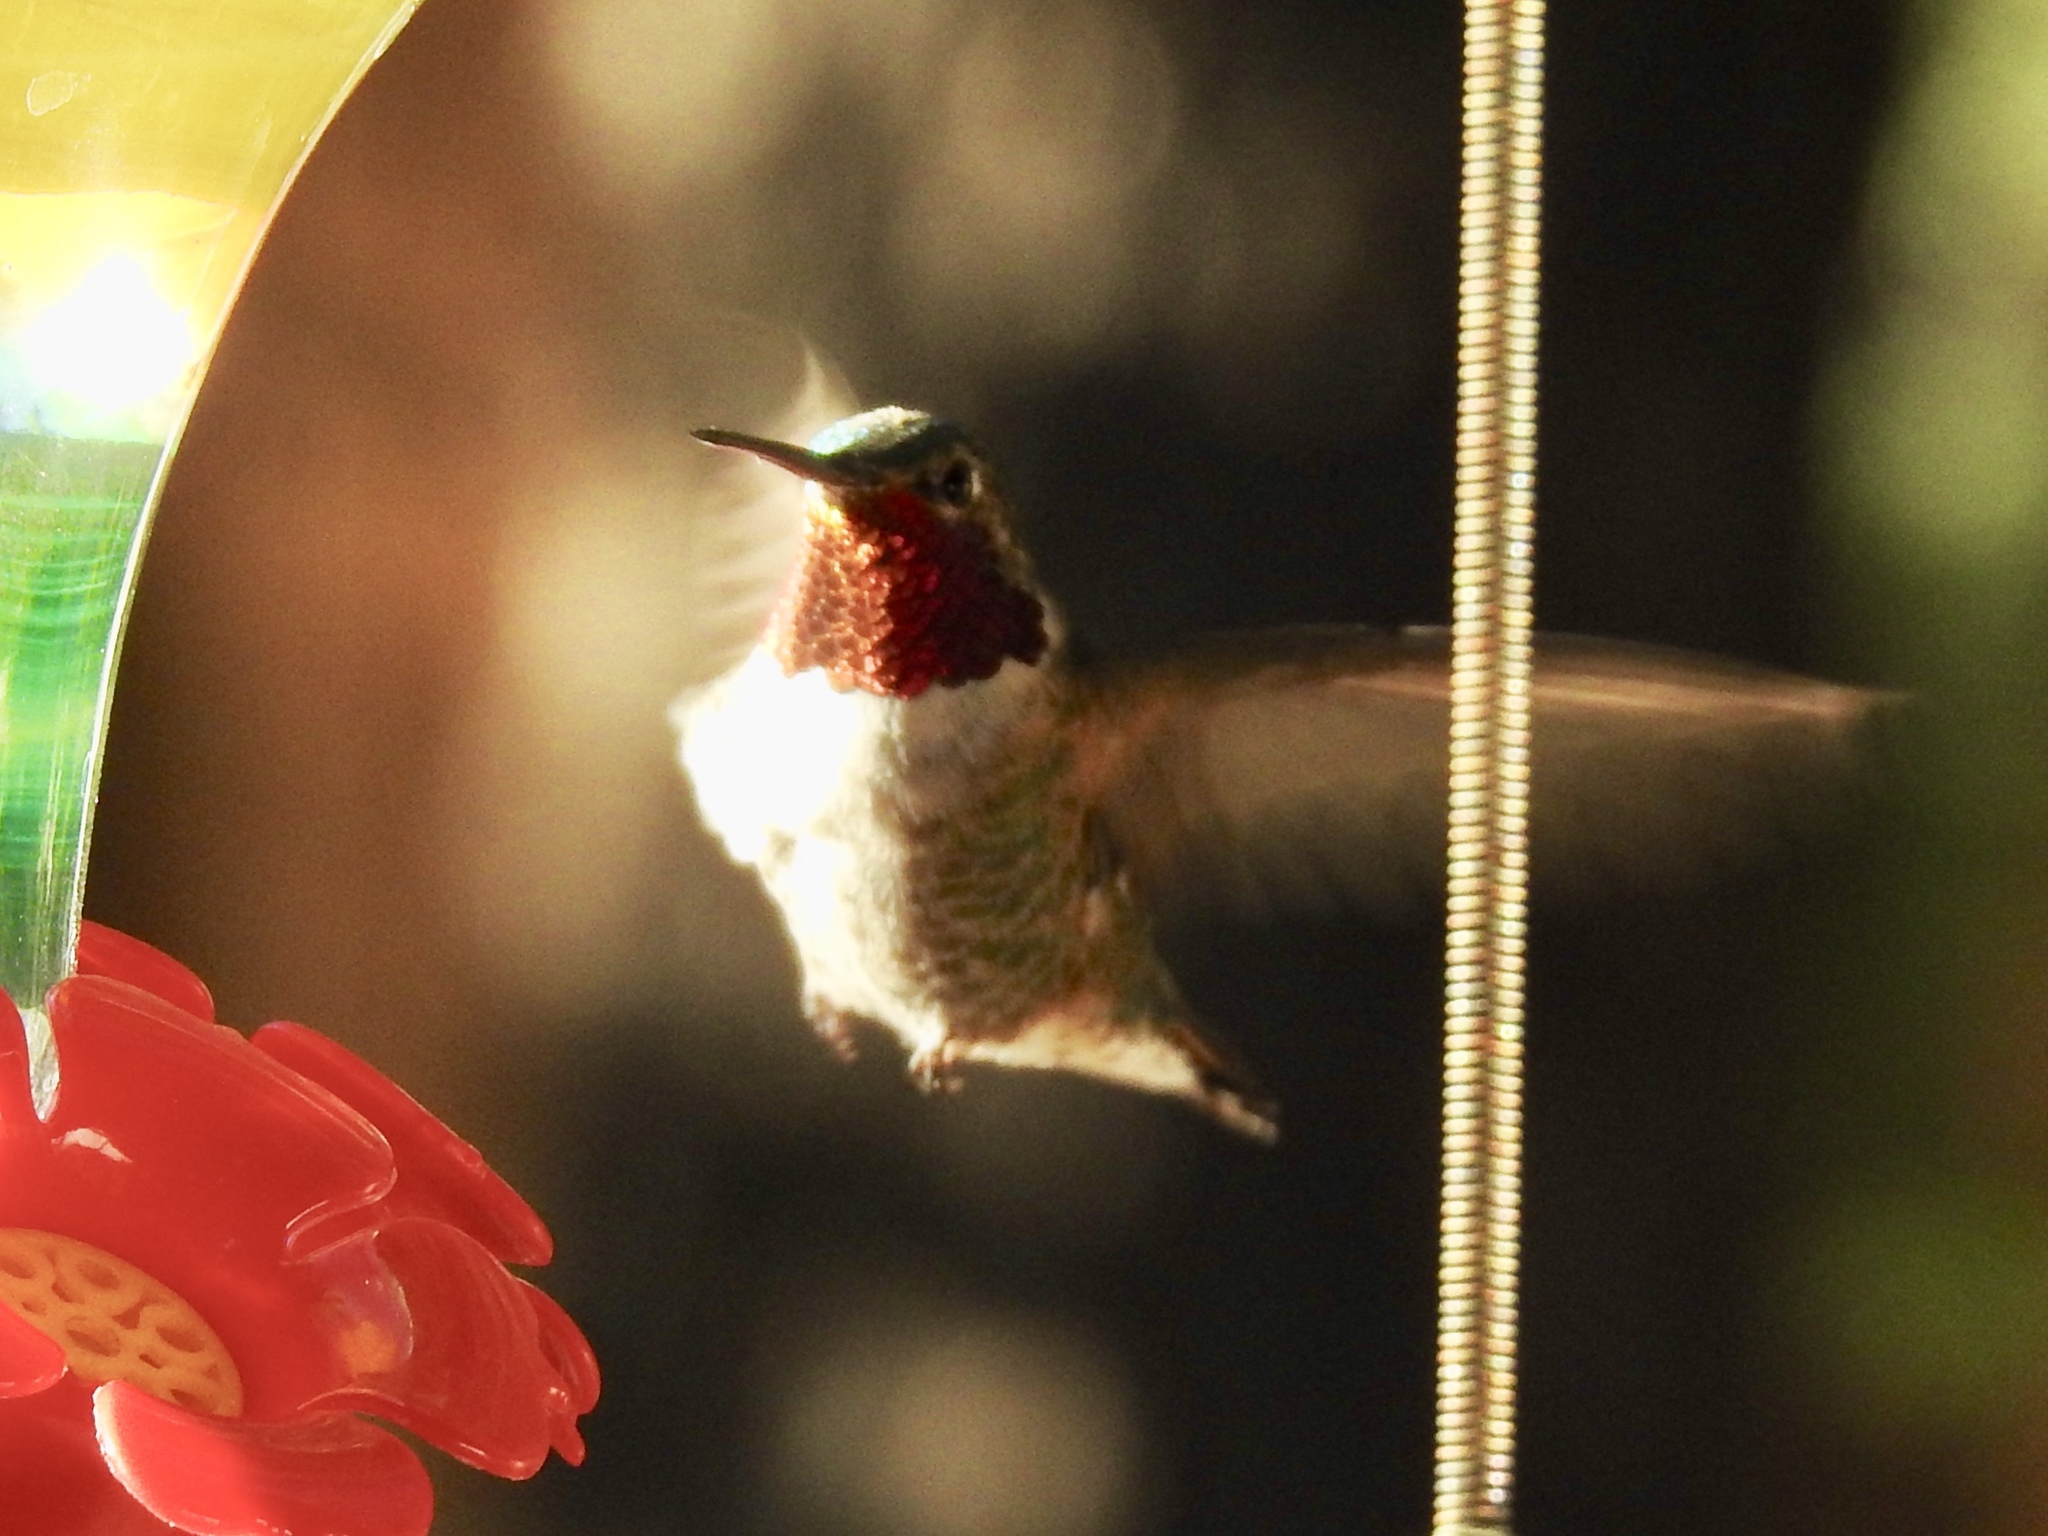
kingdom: Animalia
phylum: Chordata
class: Aves
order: Apodiformes
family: Trochilidae
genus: Selasphorus
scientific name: Selasphorus platycercus
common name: Broad-tailed hummingbird
